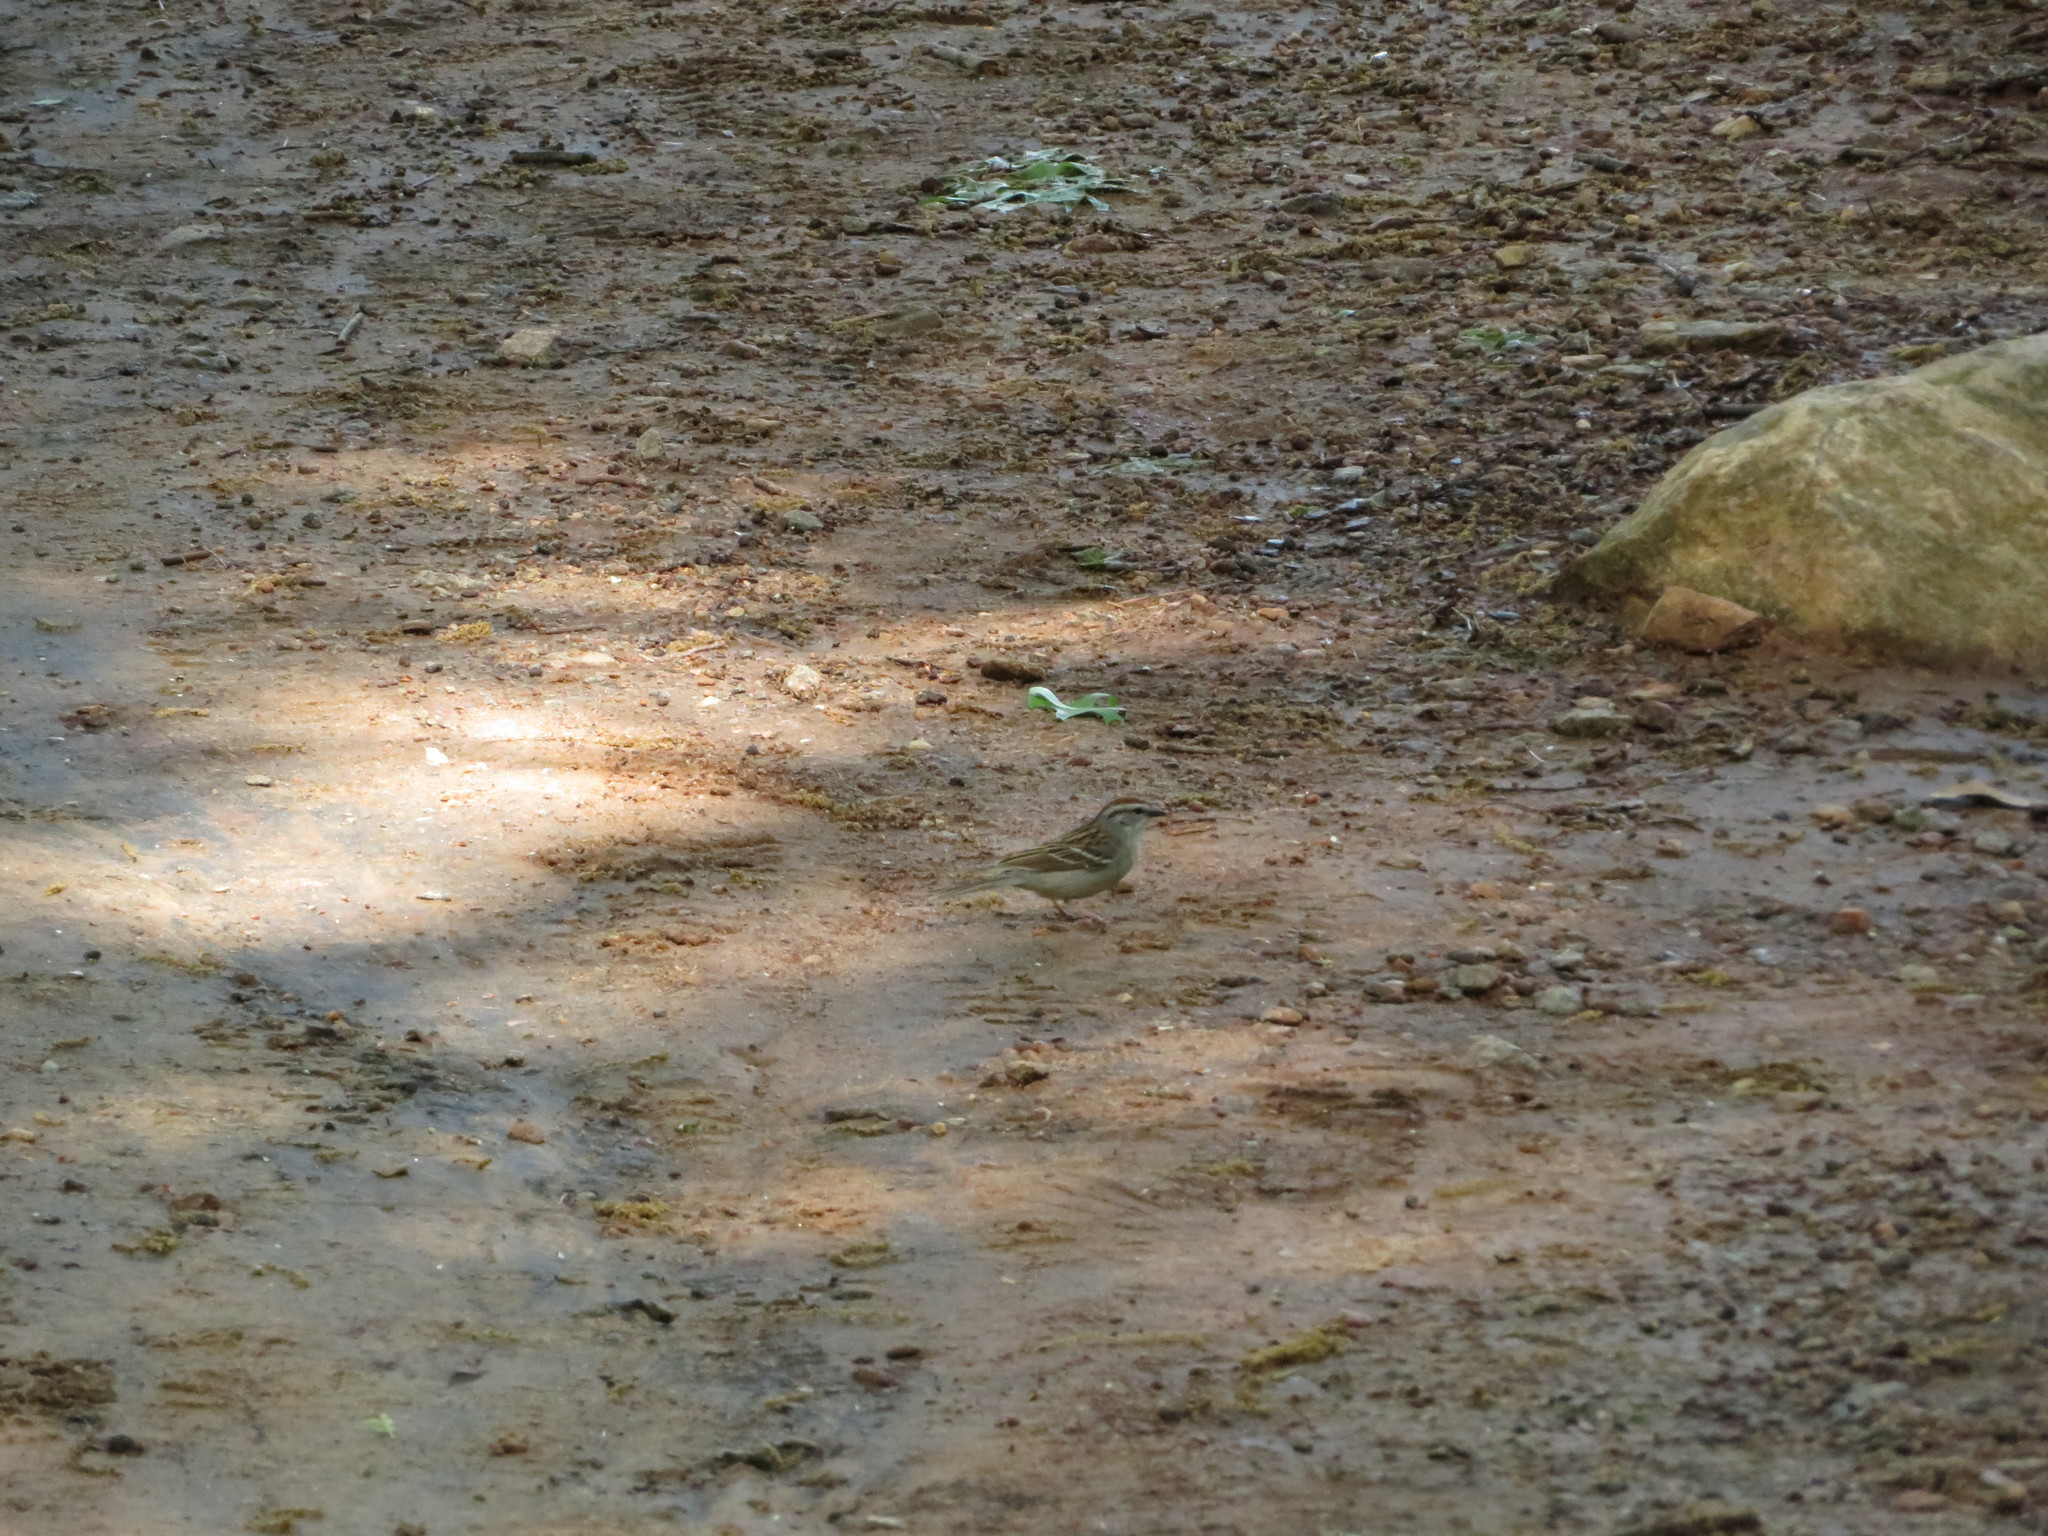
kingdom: Animalia
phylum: Chordata
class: Aves
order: Passeriformes
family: Passerellidae
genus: Spizella
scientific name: Spizella passerina
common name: Chipping sparrow
